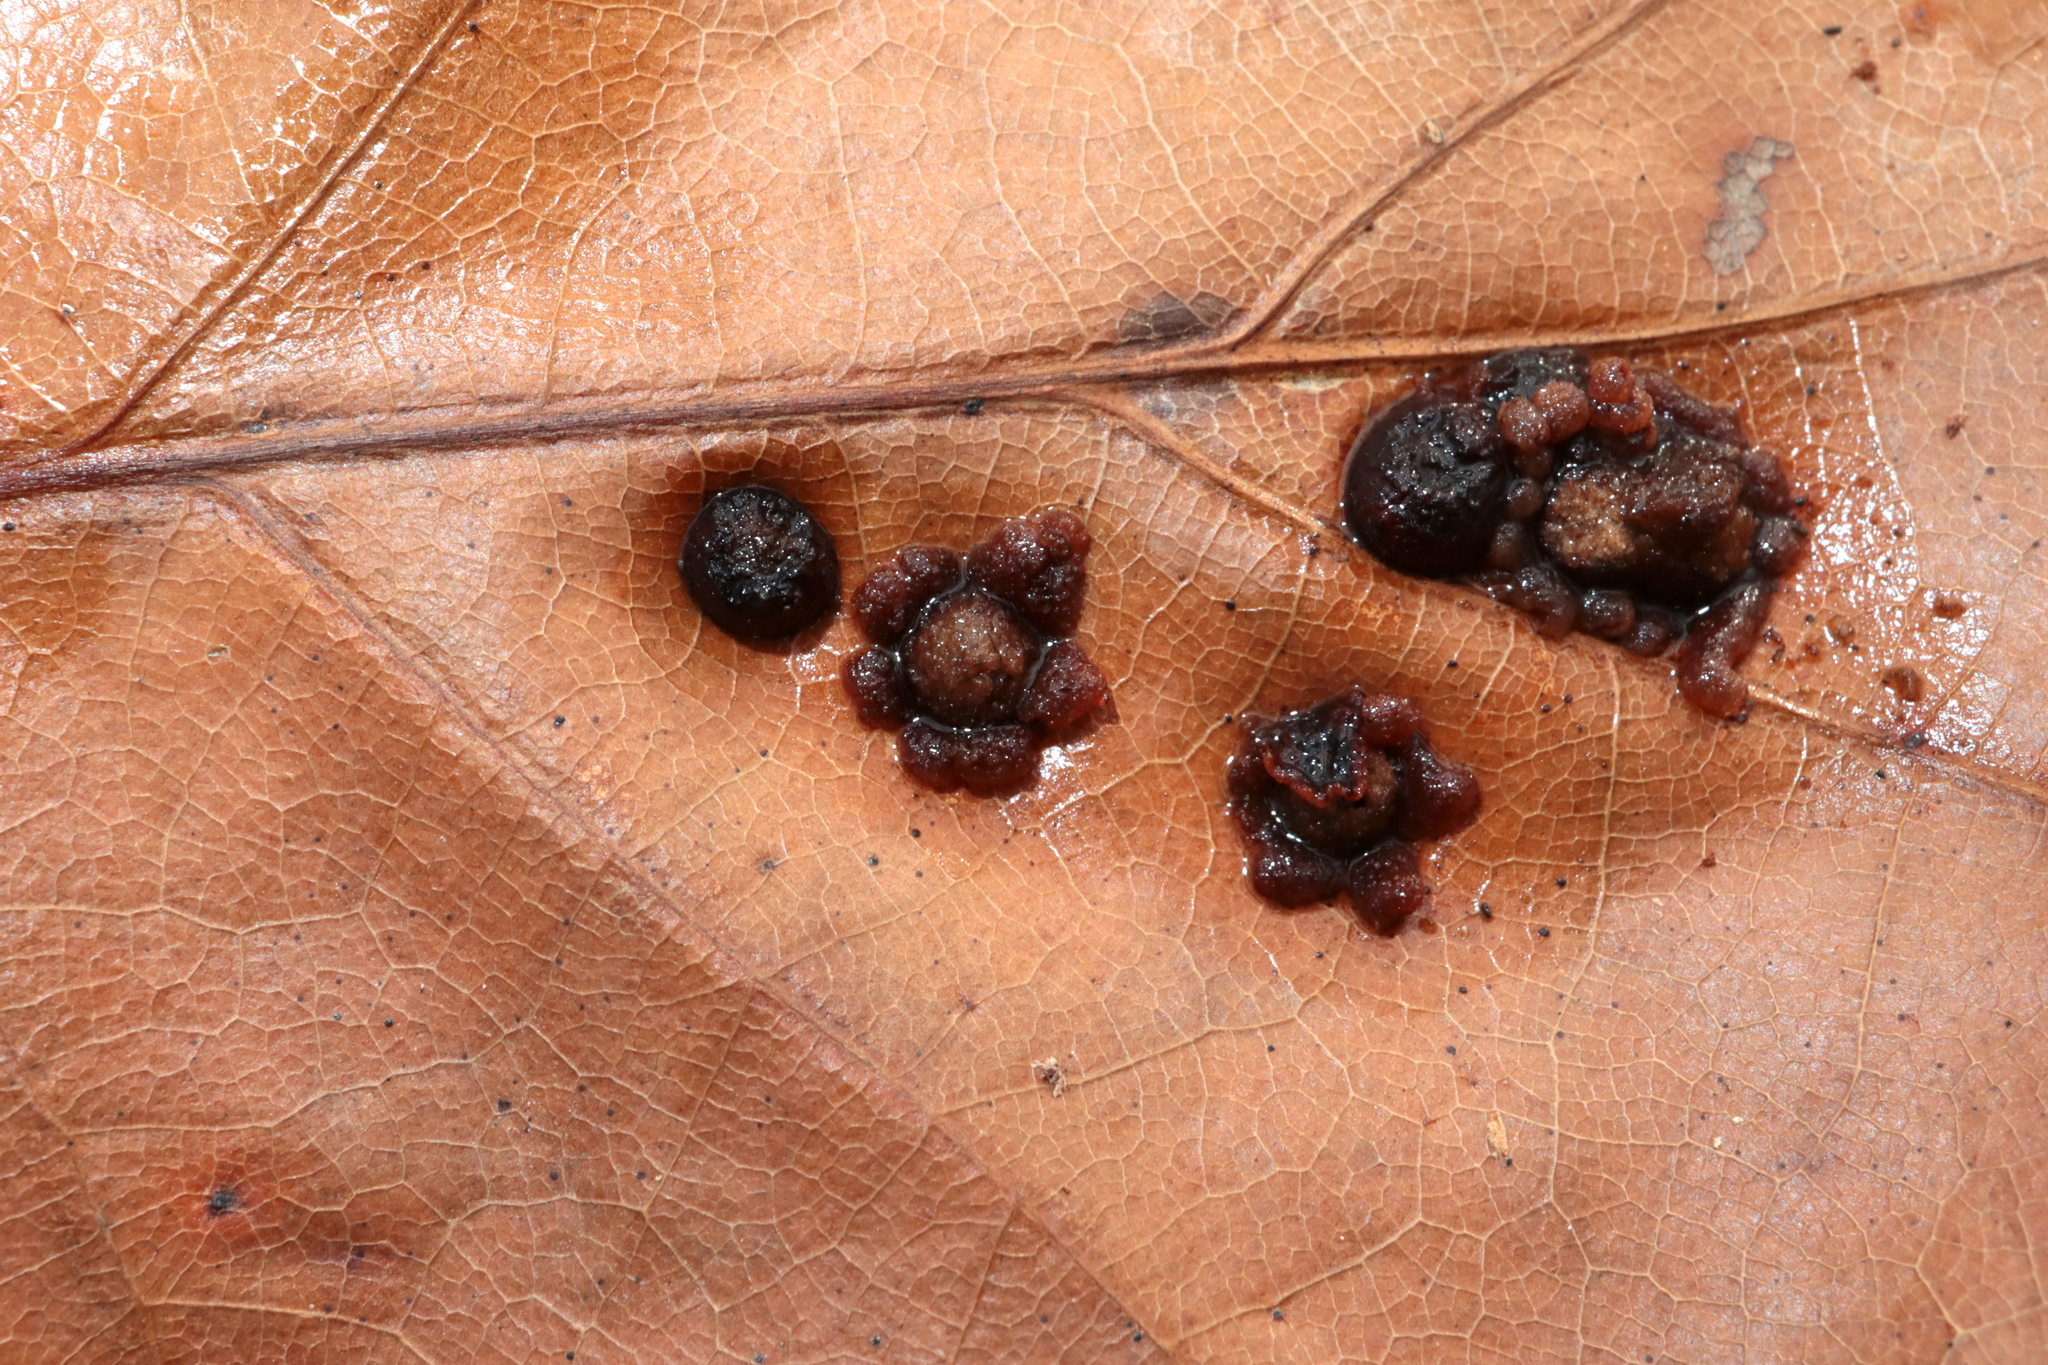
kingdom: Animalia
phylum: Arthropoda
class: Insecta
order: Diptera
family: Cecidomyiidae
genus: Polystepha
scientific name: Polystepha pilulae
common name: Oak leaf gall midge
